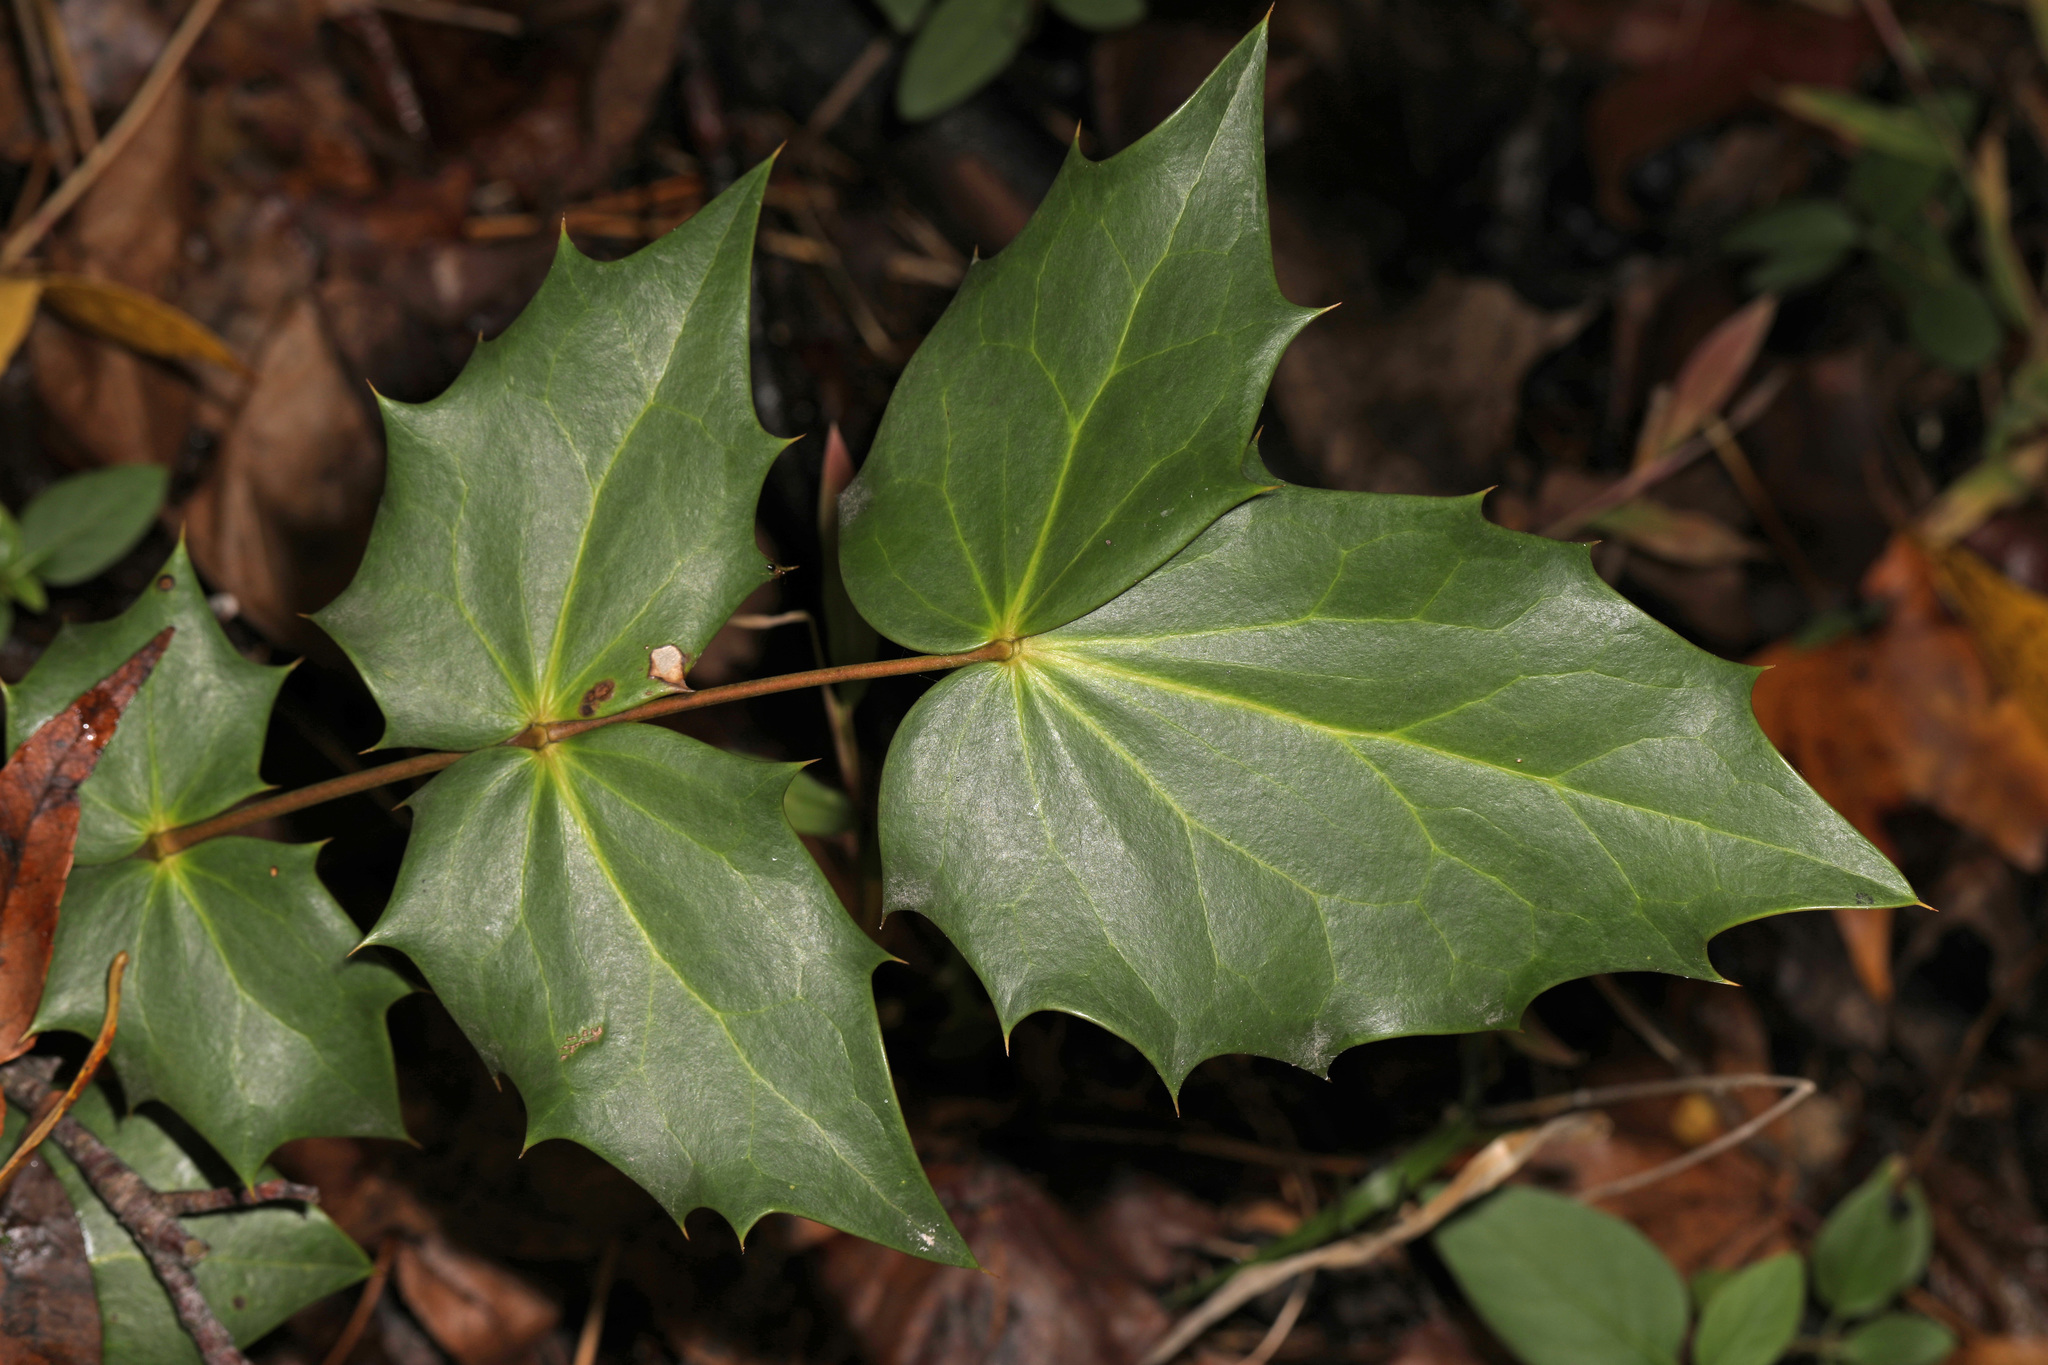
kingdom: Plantae
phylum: Tracheophyta
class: Magnoliopsida
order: Ranunculales
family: Berberidaceae
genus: Mahonia
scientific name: Mahonia bealei
